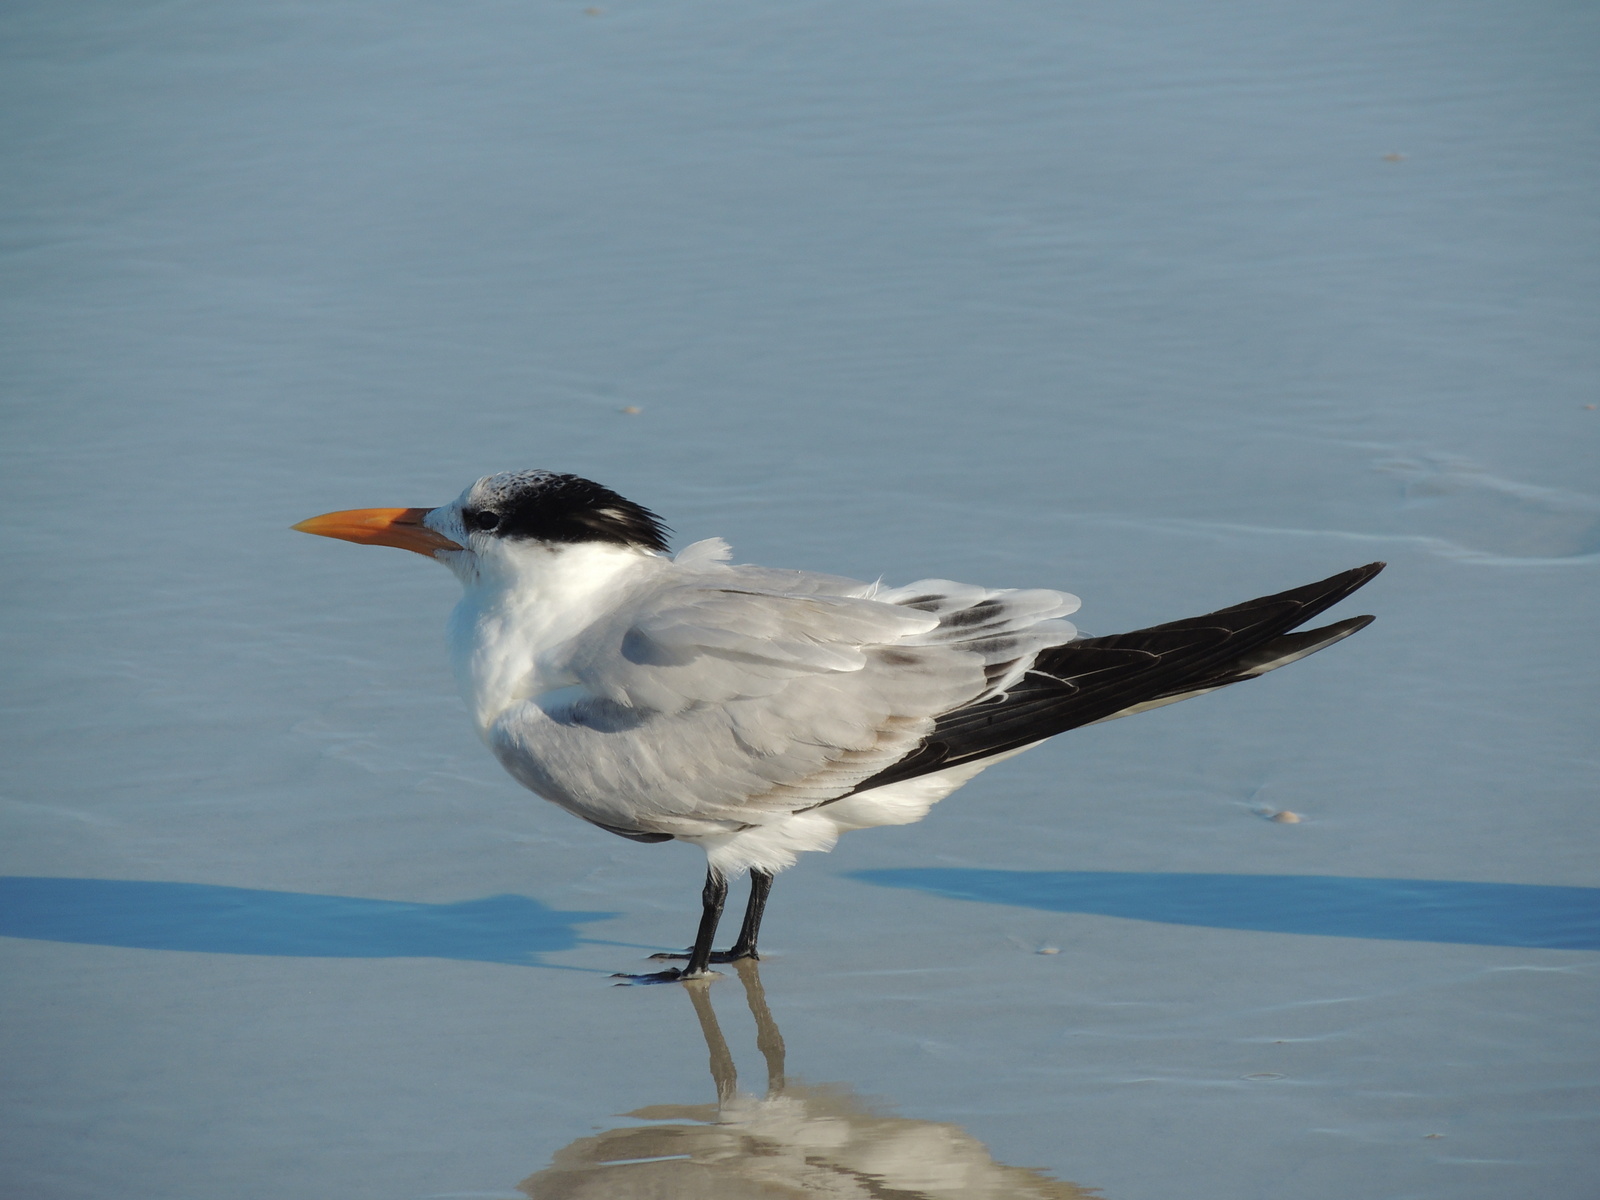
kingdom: Animalia
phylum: Chordata
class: Aves
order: Charadriiformes
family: Laridae
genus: Thalasseus
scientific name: Thalasseus maximus
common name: Royal tern
